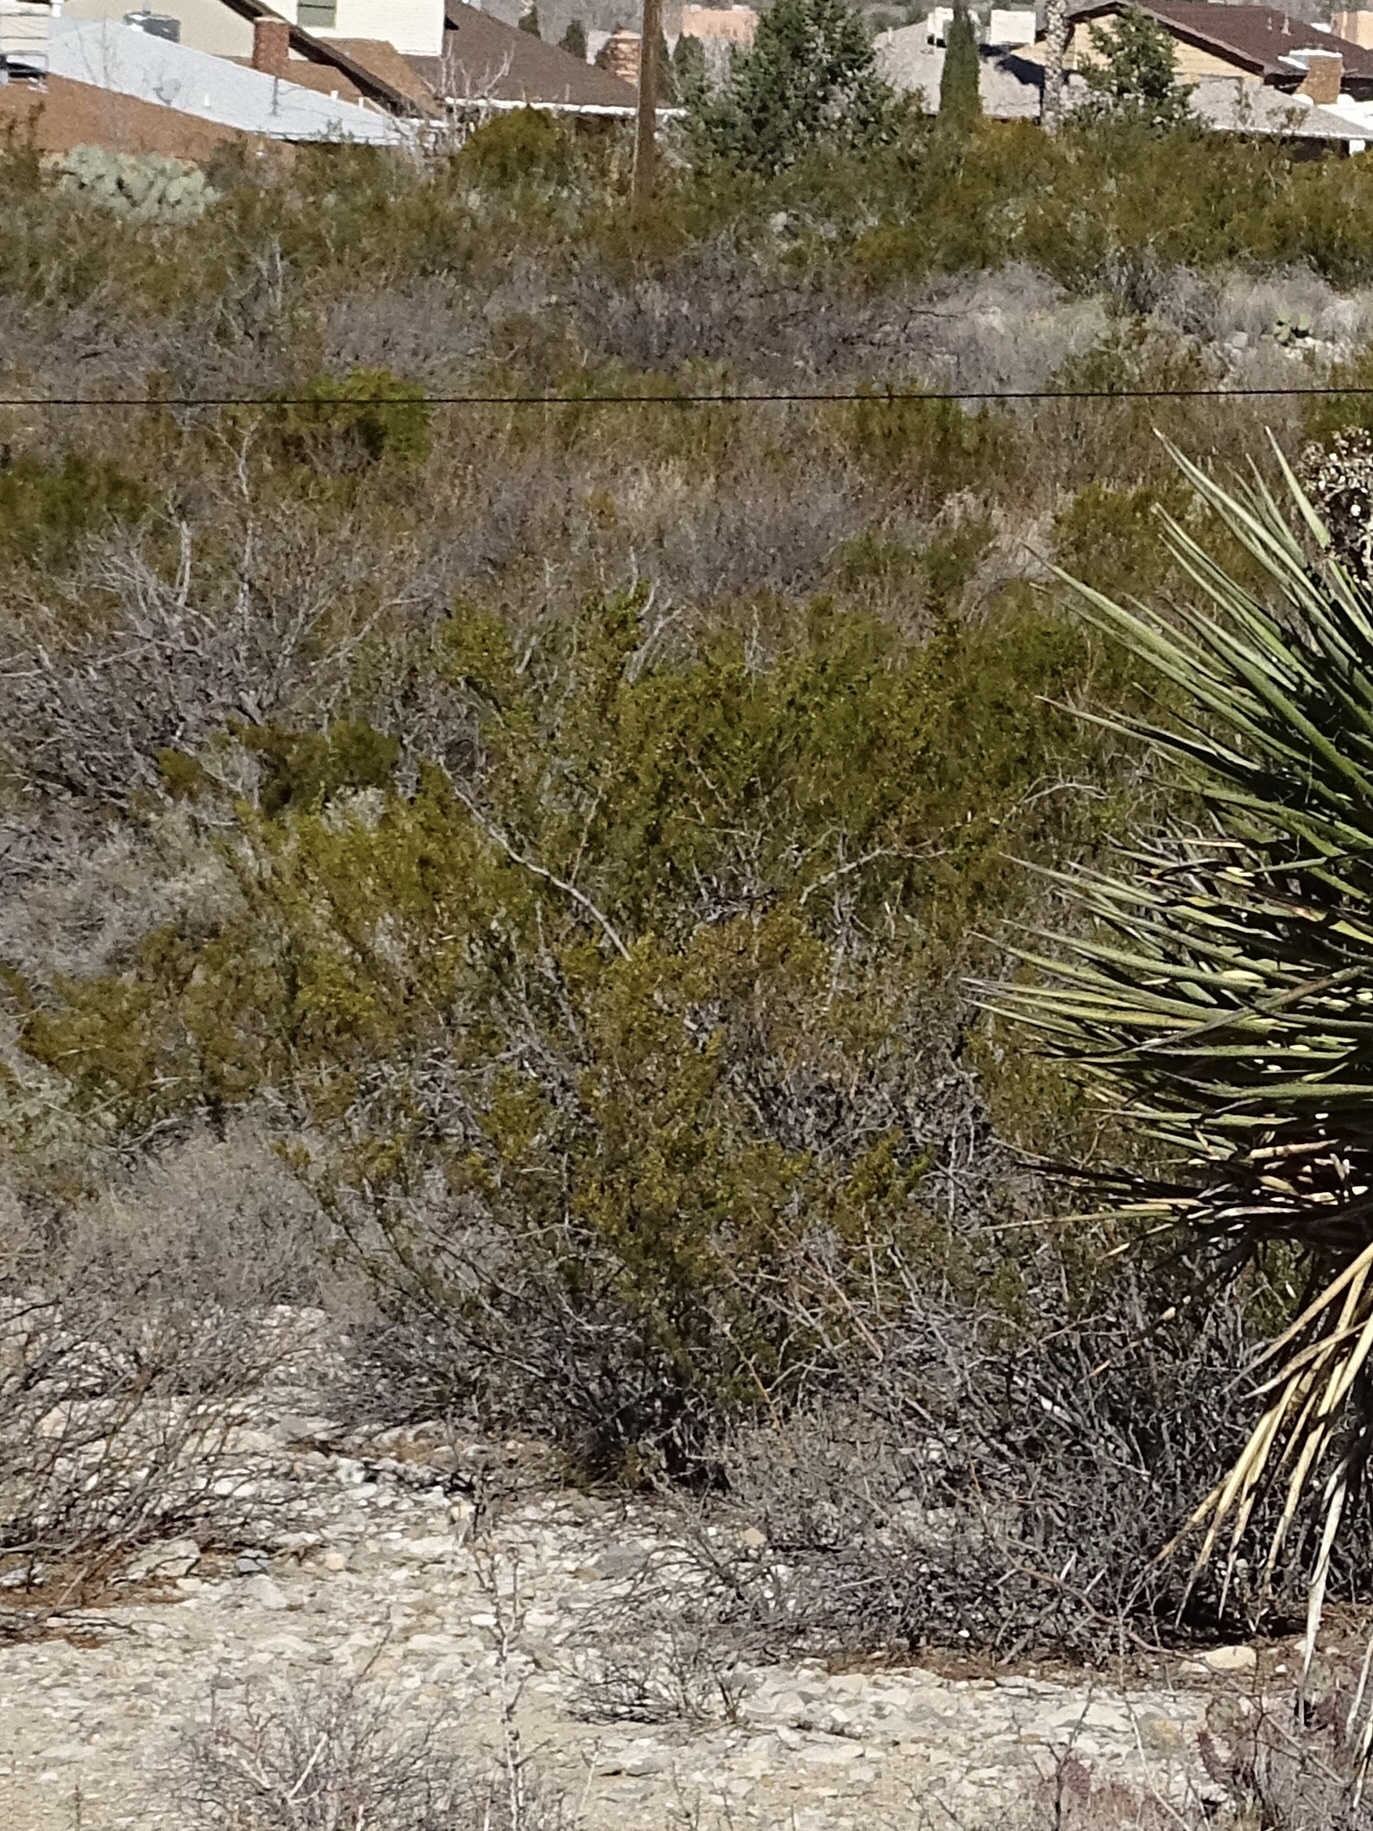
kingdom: Plantae
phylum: Tracheophyta
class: Magnoliopsida
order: Zygophyllales
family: Zygophyllaceae
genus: Larrea
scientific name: Larrea tridentata
